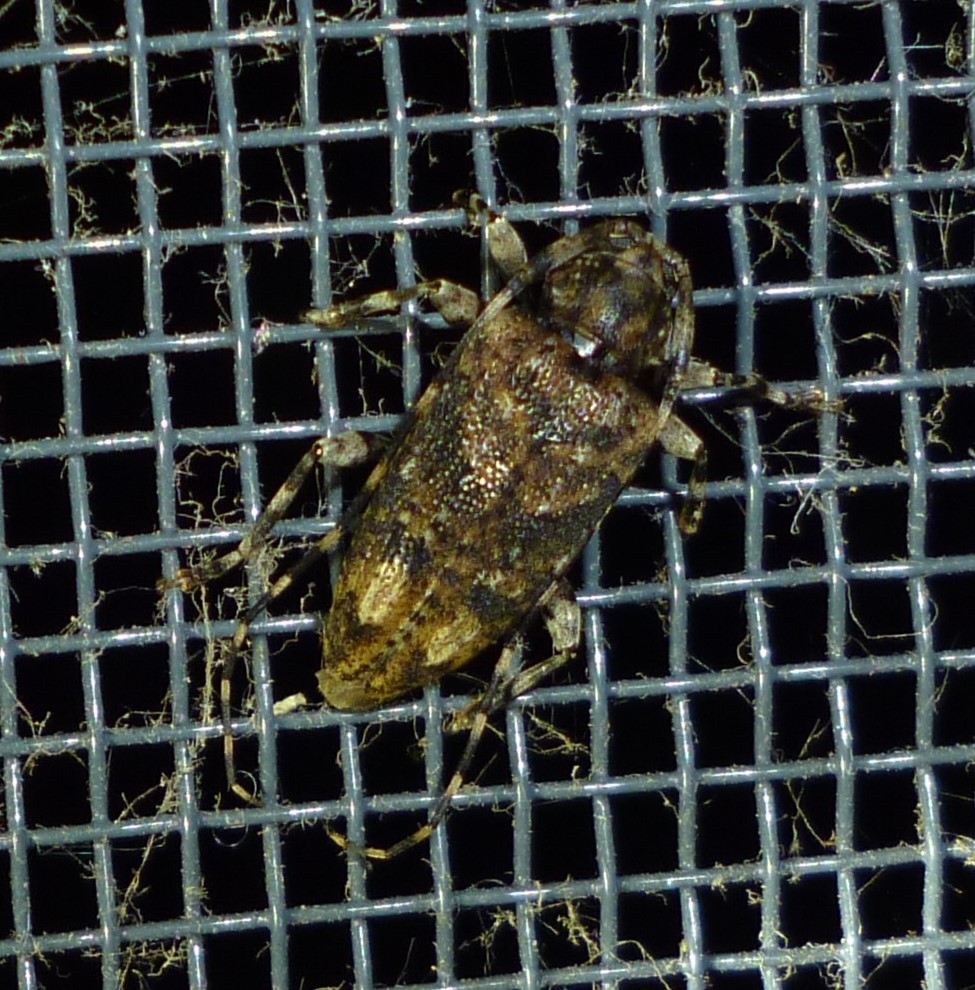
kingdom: Animalia
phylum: Arthropoda
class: Insecta
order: Coleoptera
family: Cerambycidae
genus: Astyleiopus
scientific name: Astyleiopus variegatus
